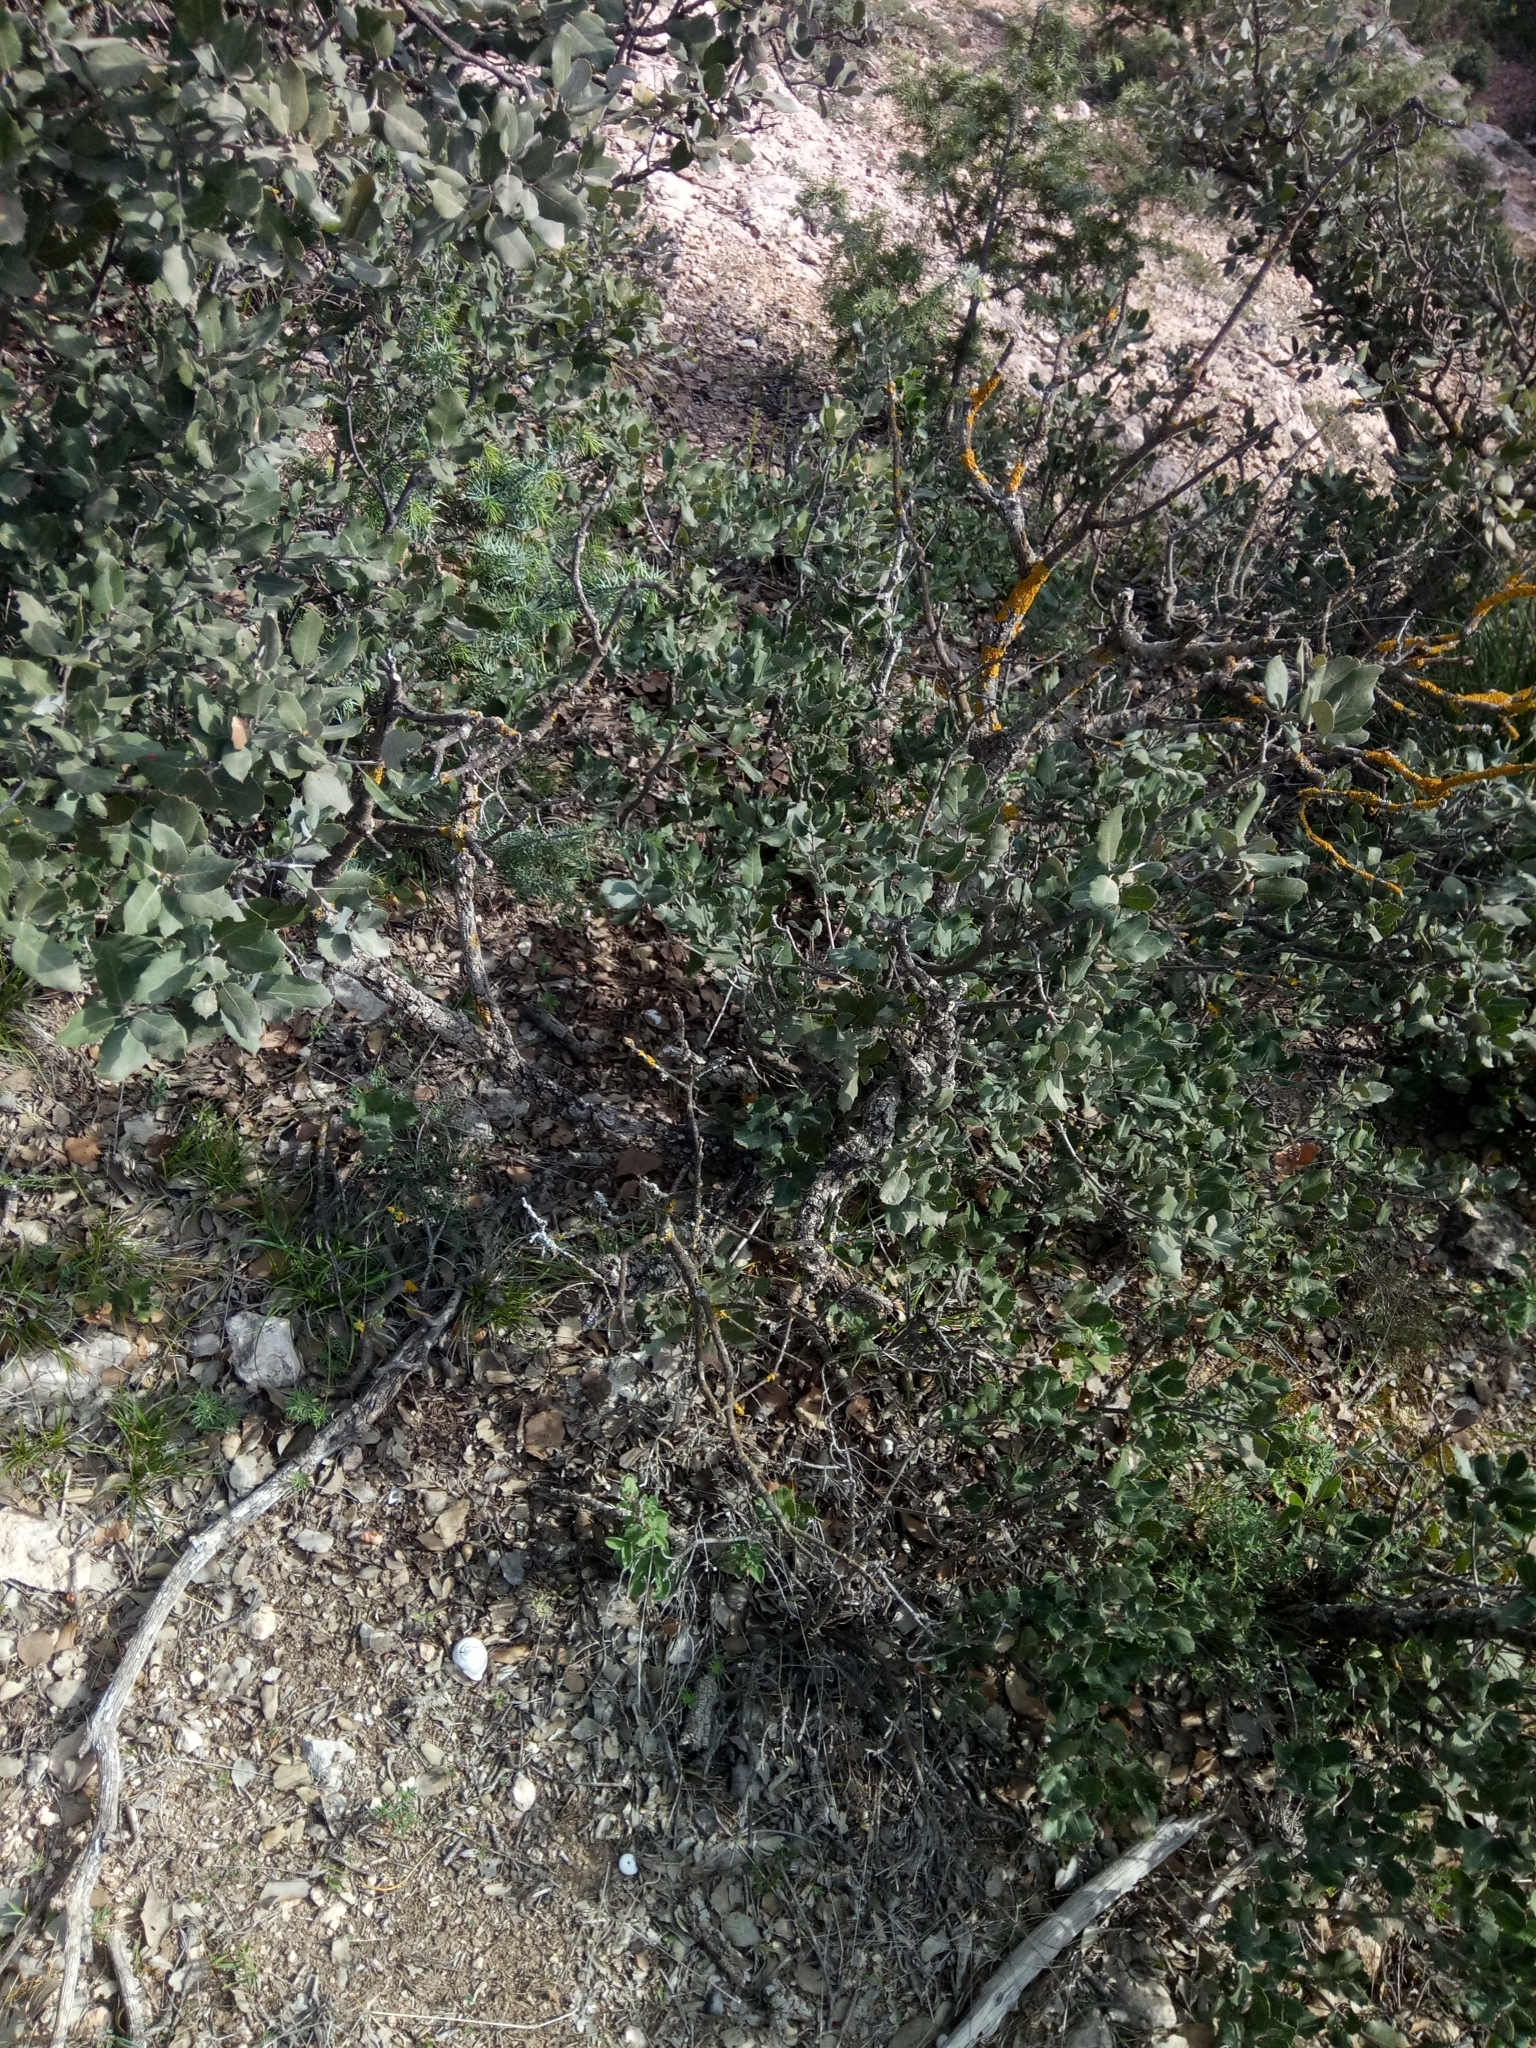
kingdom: Plantae
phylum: Tracheophyta
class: Magnoliopsida
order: Fagales
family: Fagaceae
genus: Quercus
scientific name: Quercus rotundifolia
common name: Holm oak
